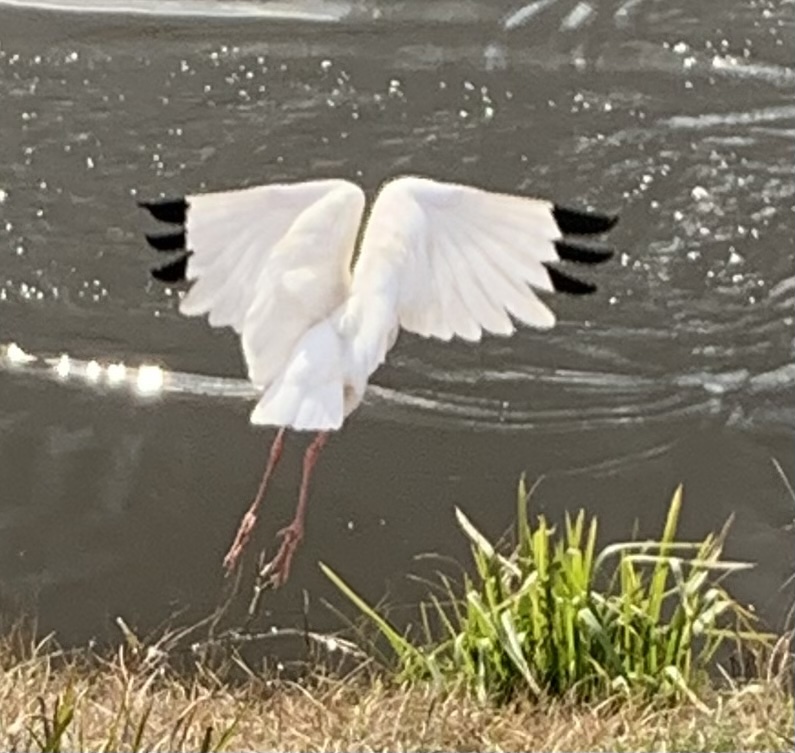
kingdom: Animalia
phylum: Chordata
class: Aves
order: Pelecaniformes
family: Threskiornithidae
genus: Eudocimus
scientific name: Eudocimus albus
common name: White ibis
